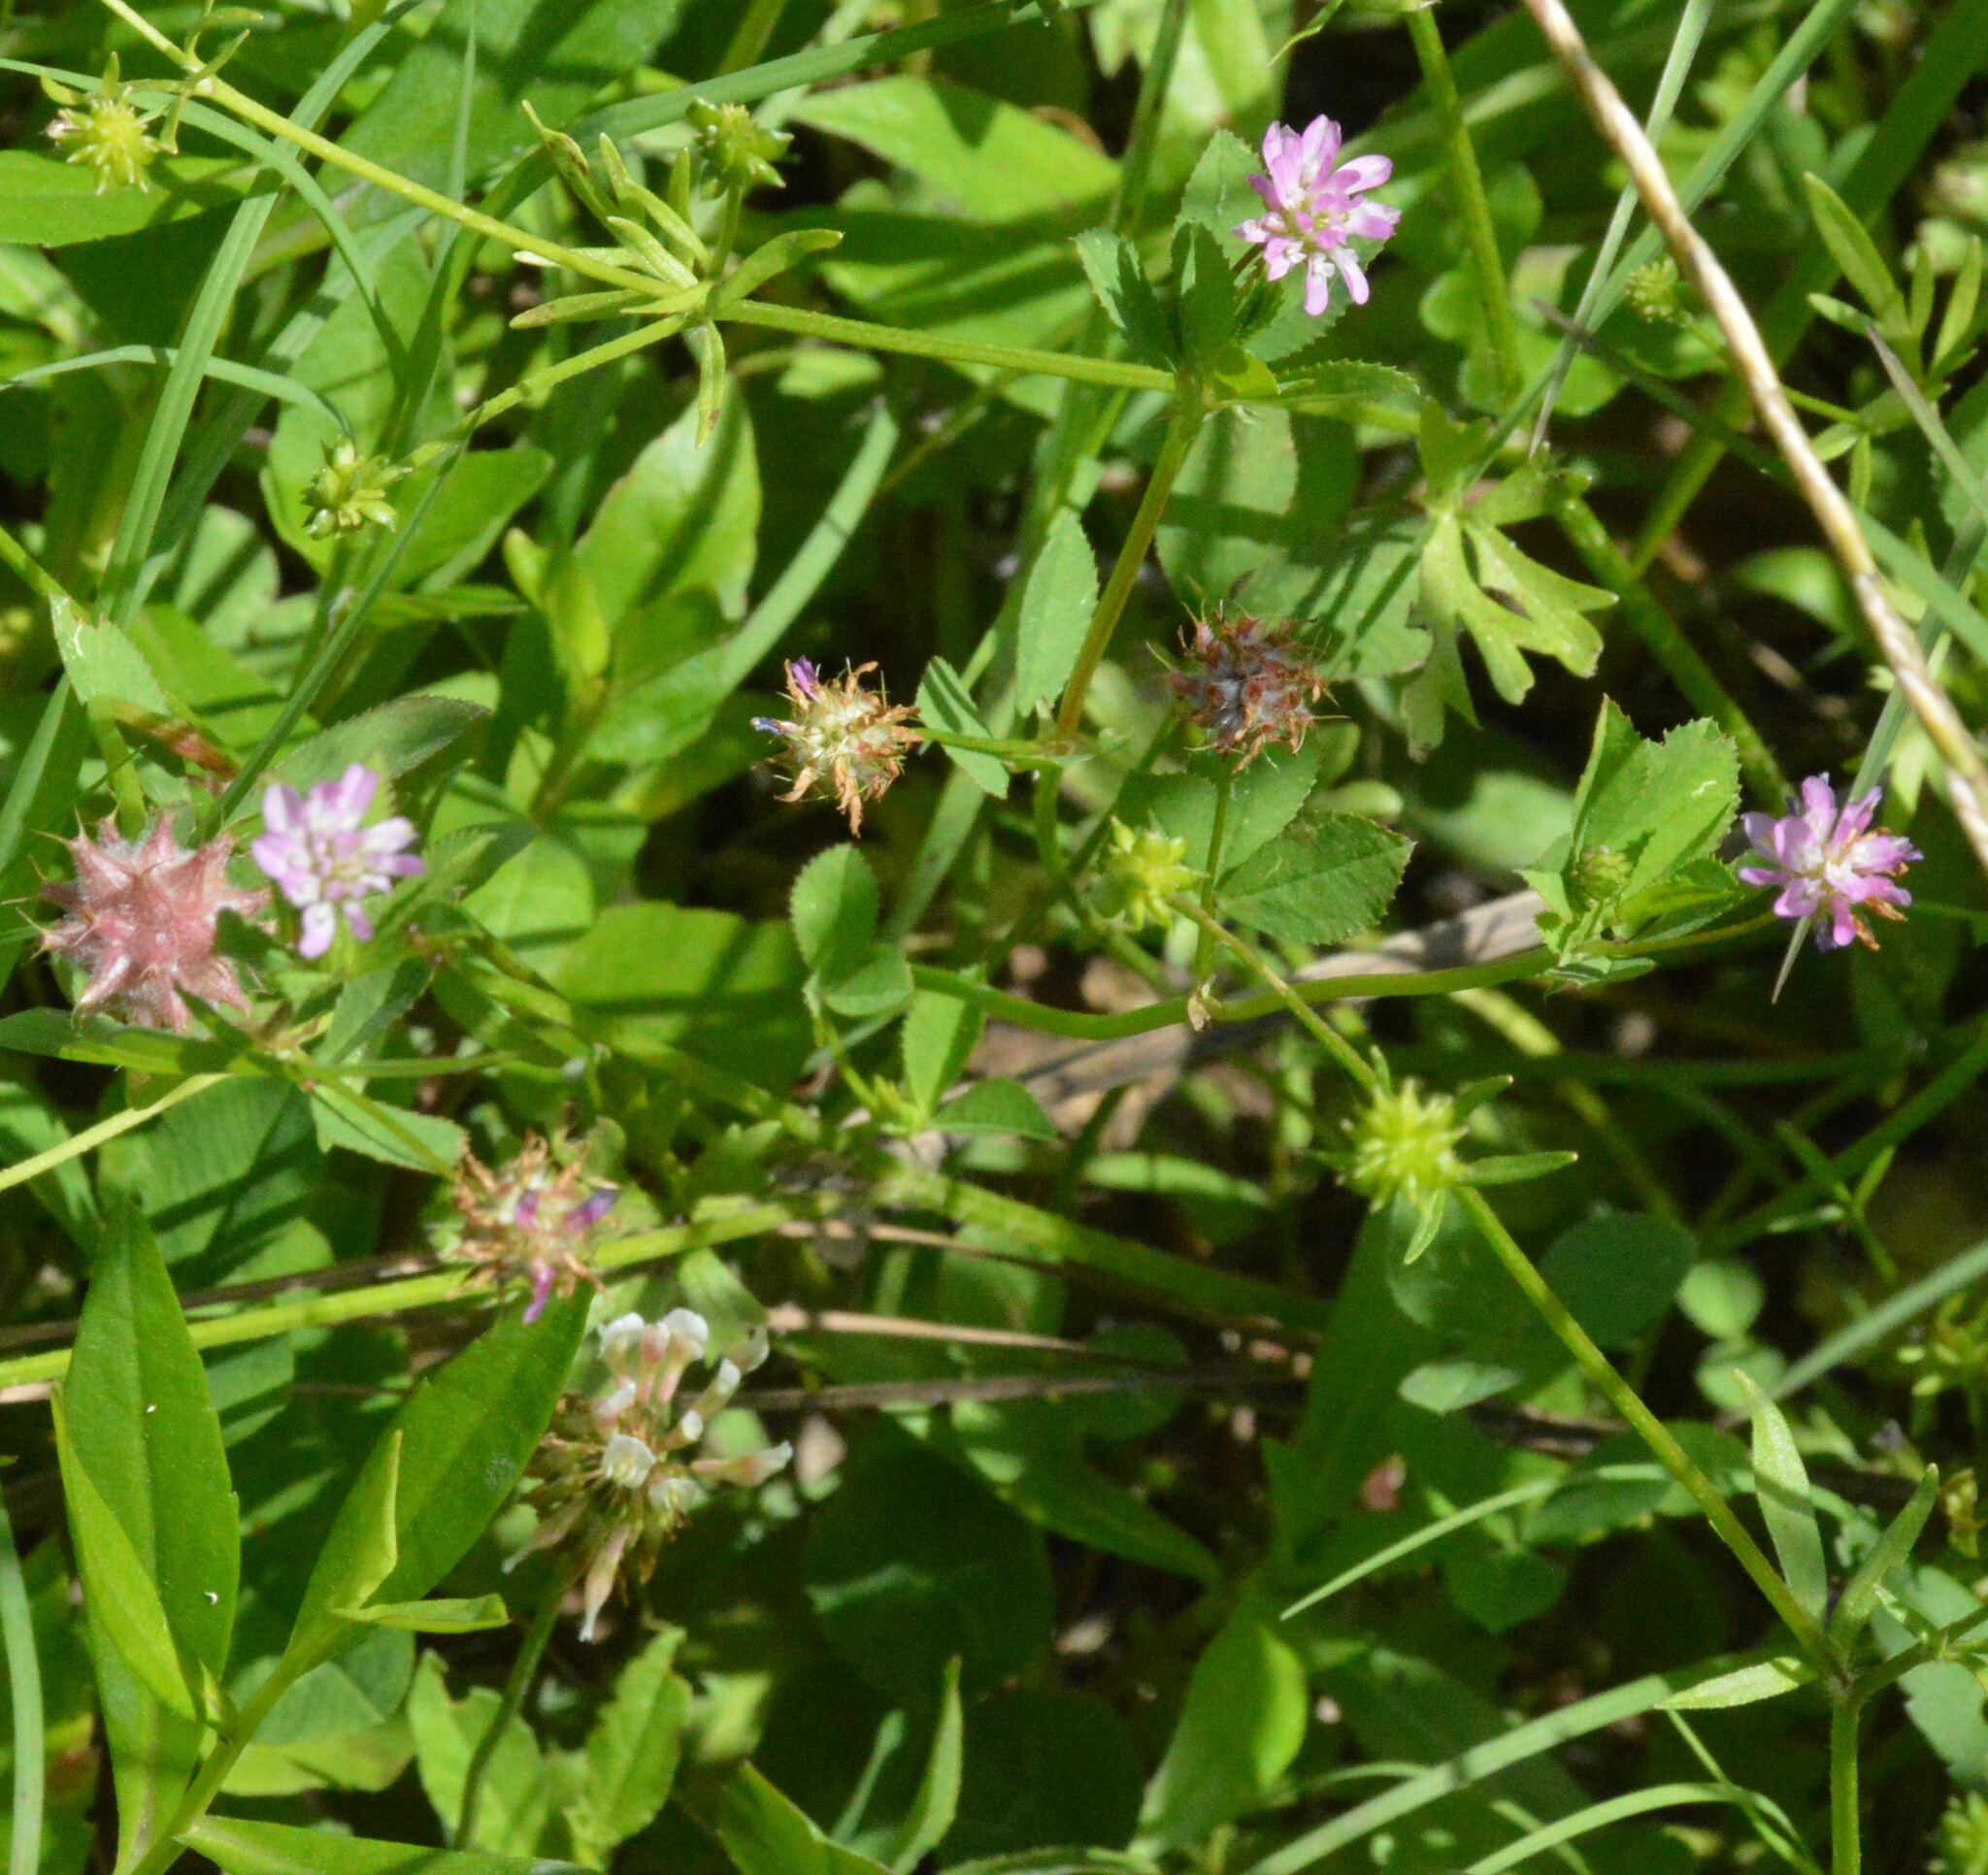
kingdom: Plantae
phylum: Tracheophyta
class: Magnoliopsida
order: Fabales
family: Fabaceae
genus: Trifolium
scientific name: Trifolium resupinatum
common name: Reversed clover
